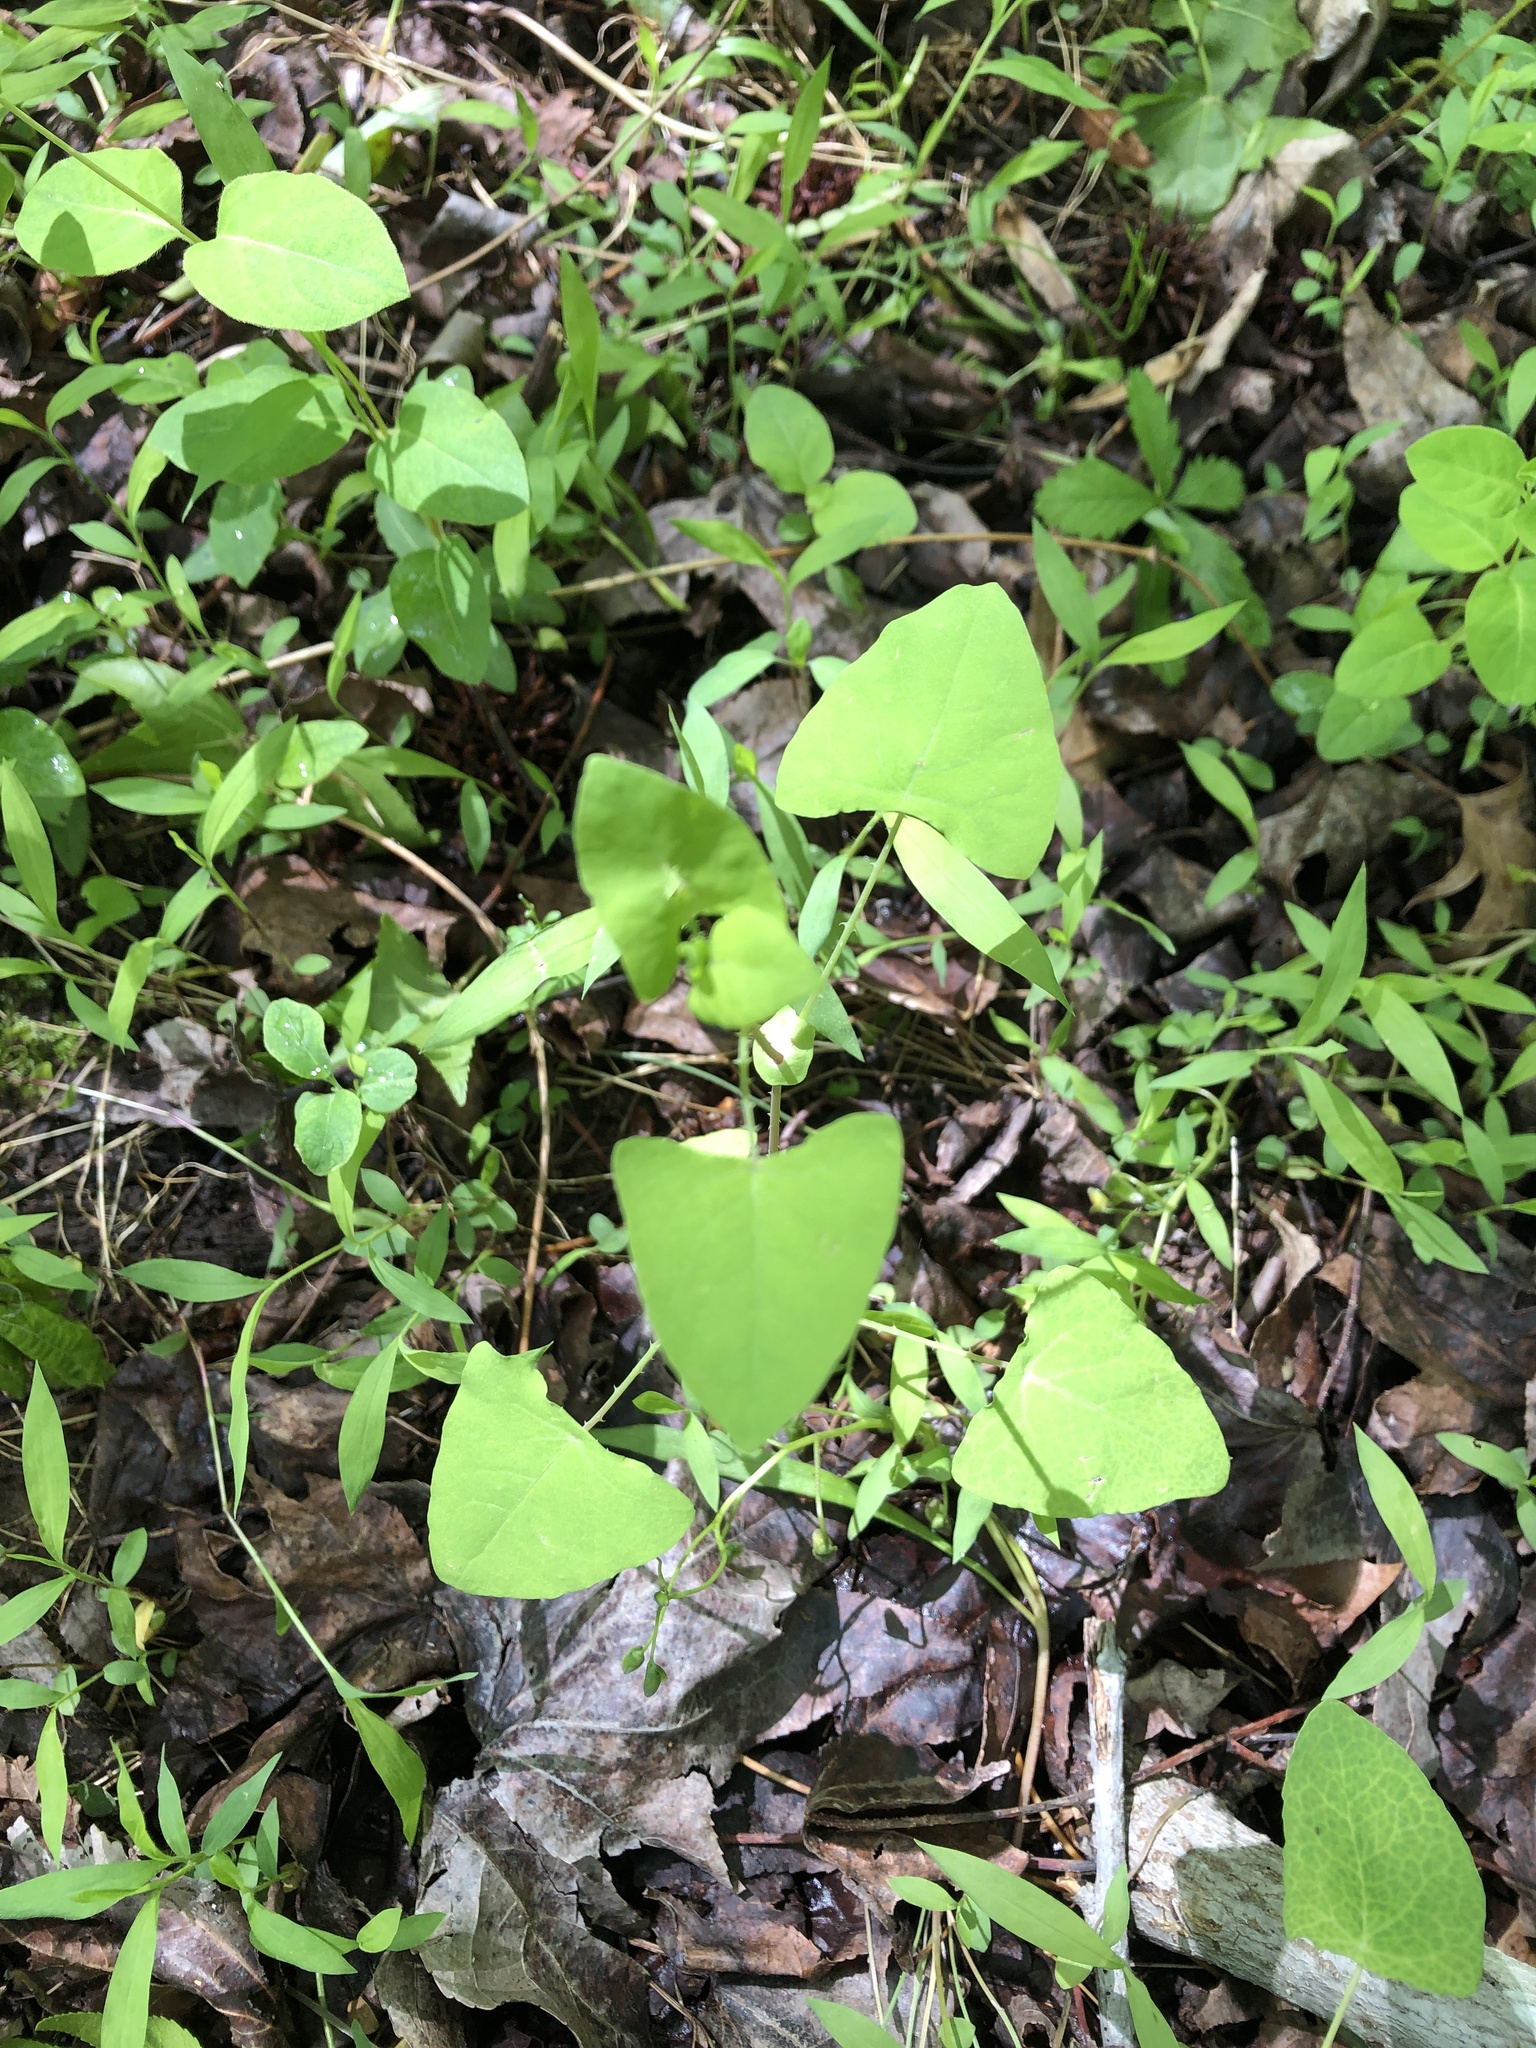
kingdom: Plantae
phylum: Tracheophyta
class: Magnoliopsida
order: Caryophyllales
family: Polygonaceae
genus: Persicaria
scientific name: Persicaria perfoliata
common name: Asiatic tearthumb
